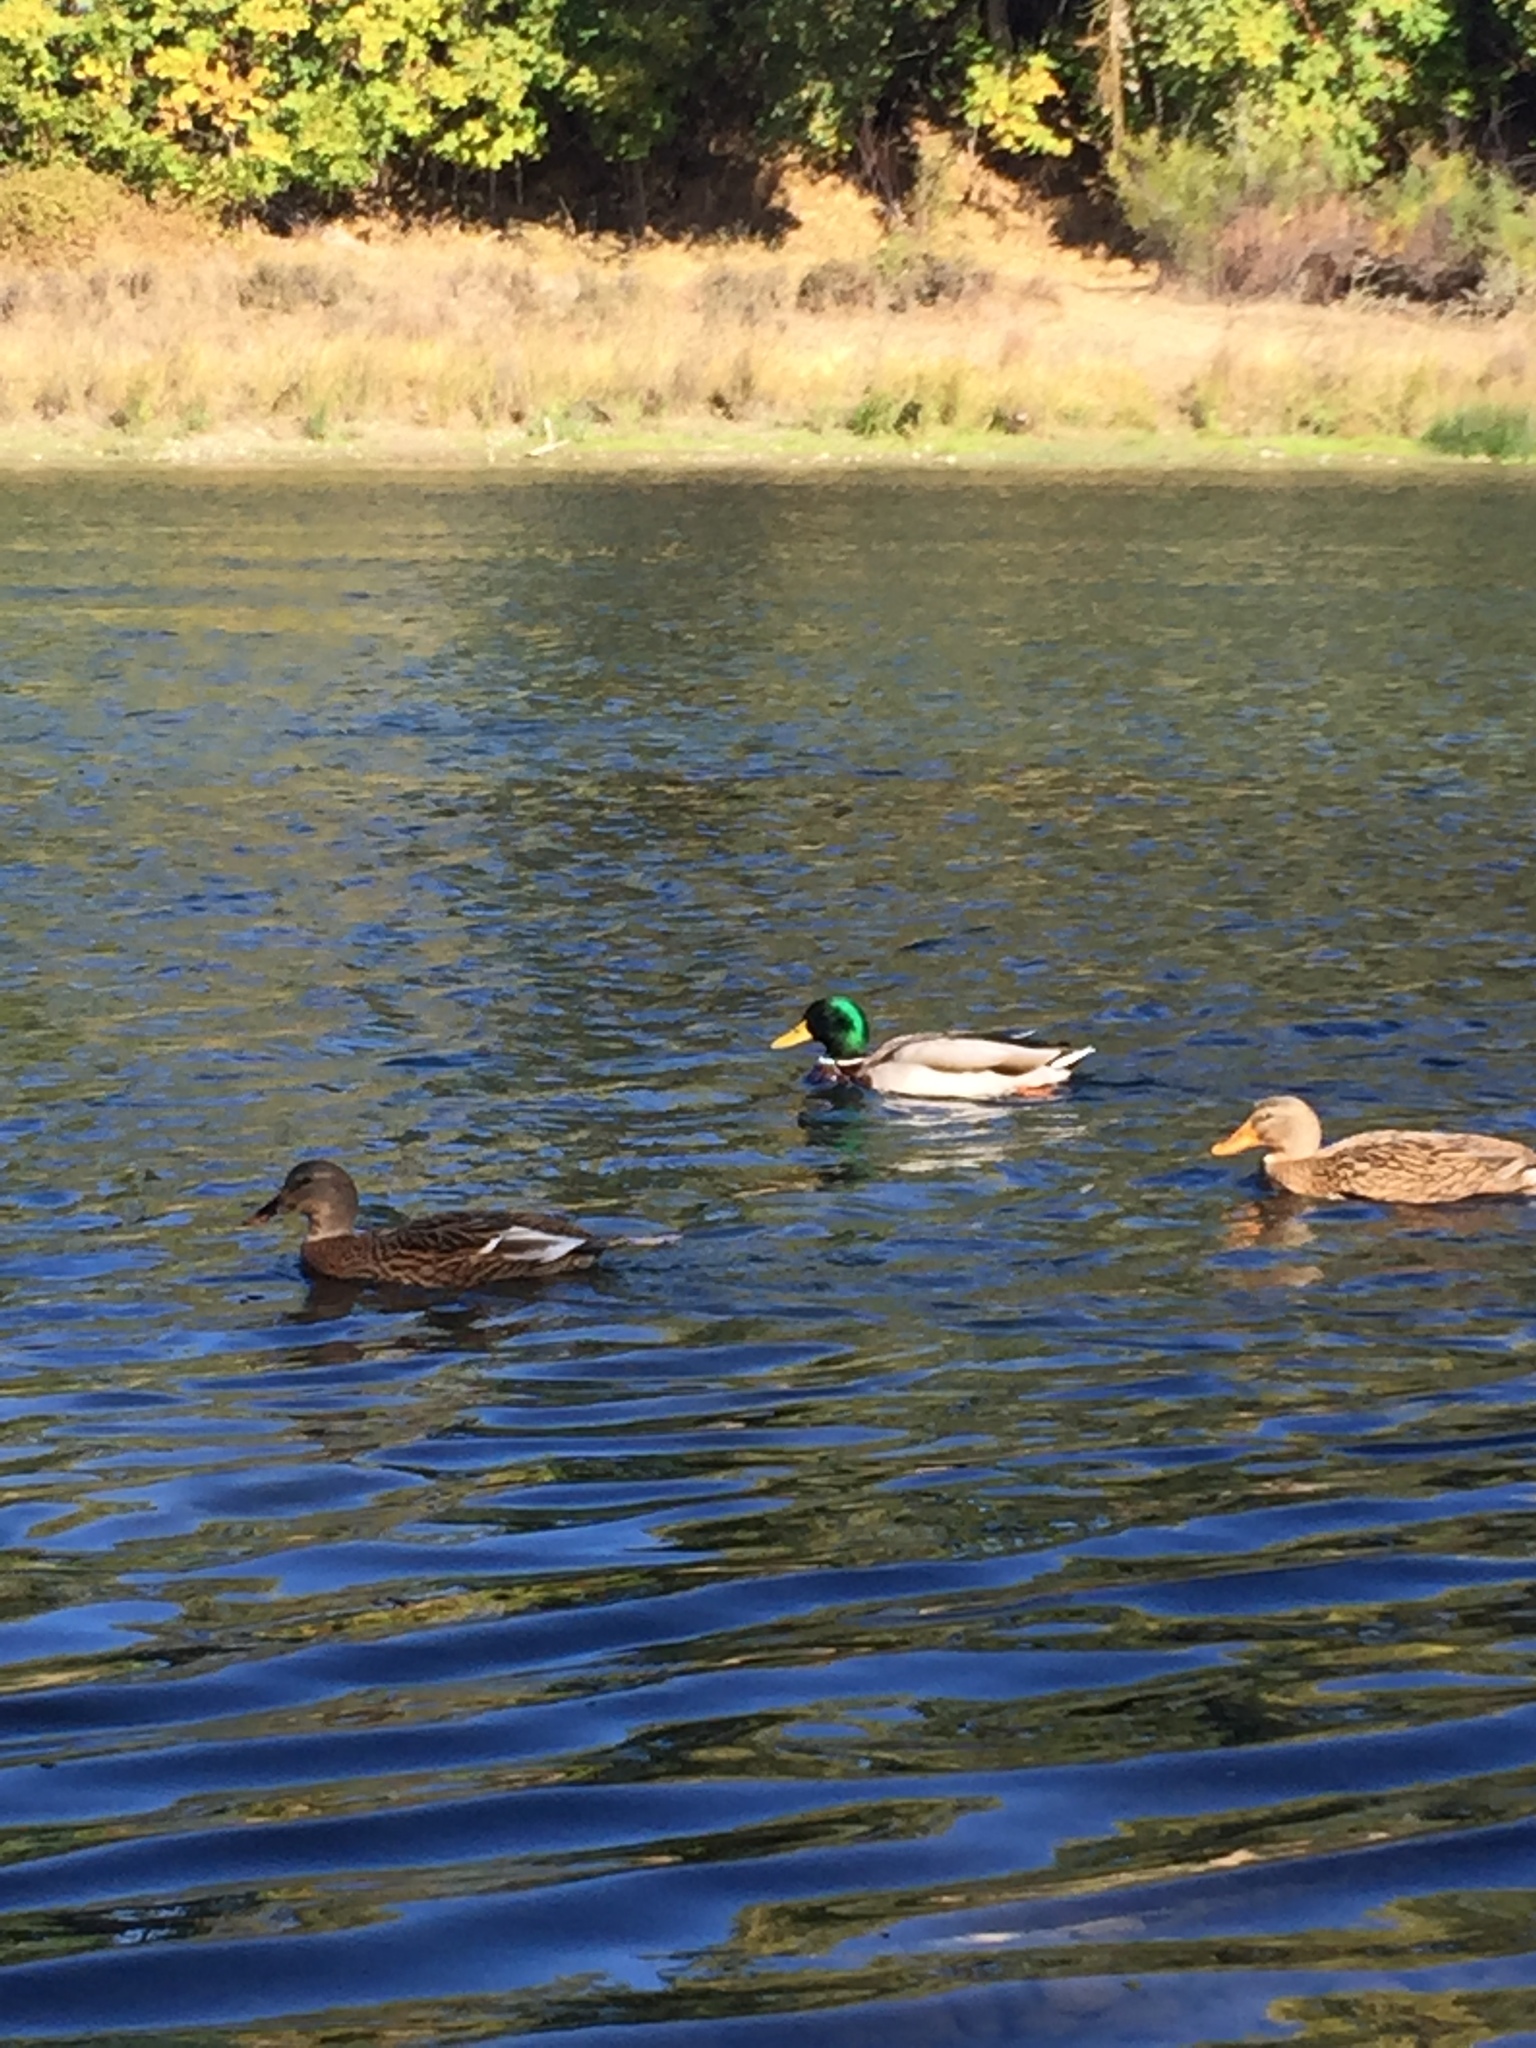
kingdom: Animalia
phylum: Chordata
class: Aves
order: Anseriformes
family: Anatidae
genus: Anas
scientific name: Anas platyrhynchos
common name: Mallard
